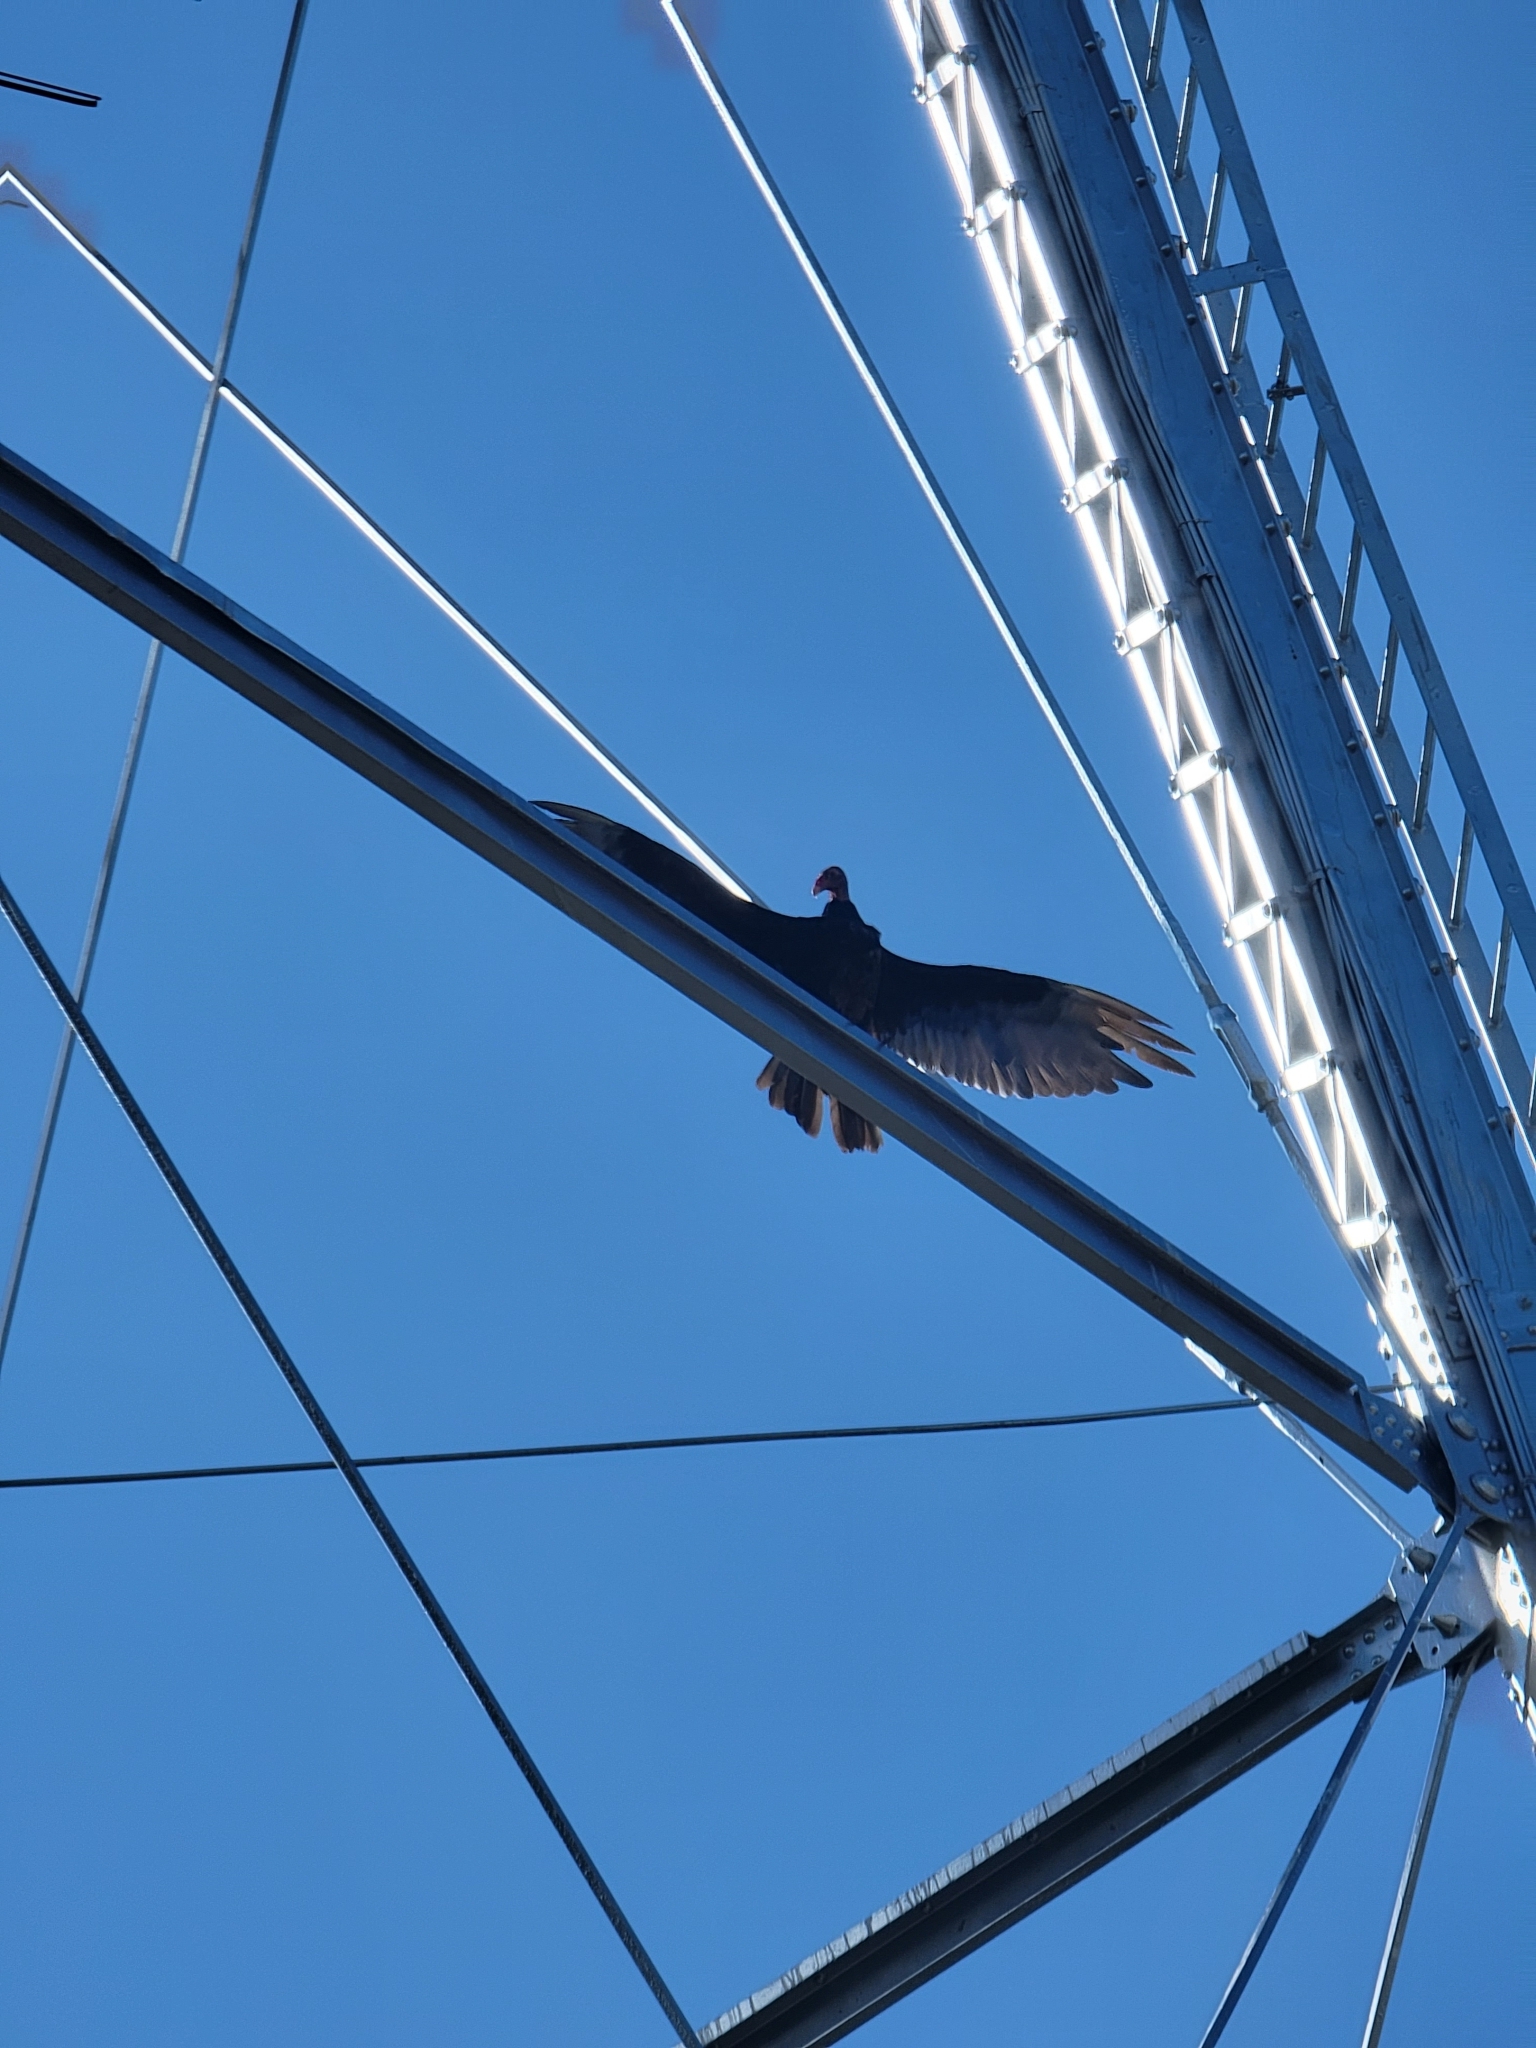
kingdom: Animalia
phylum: Chordata
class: Aves
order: Accipitriformes
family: Cathartidae
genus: Cathartes
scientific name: Cathartes aura
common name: Turkey vulture
